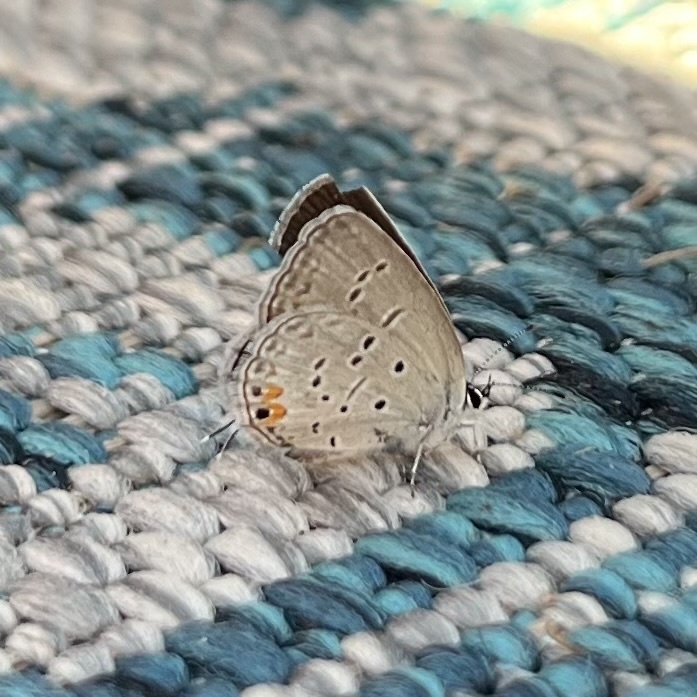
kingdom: Animalia
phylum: Arthropoda
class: Insecta
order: Lepidoptera
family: Lycaenidae
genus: Elkalyce
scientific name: Elkalyce comyntas
